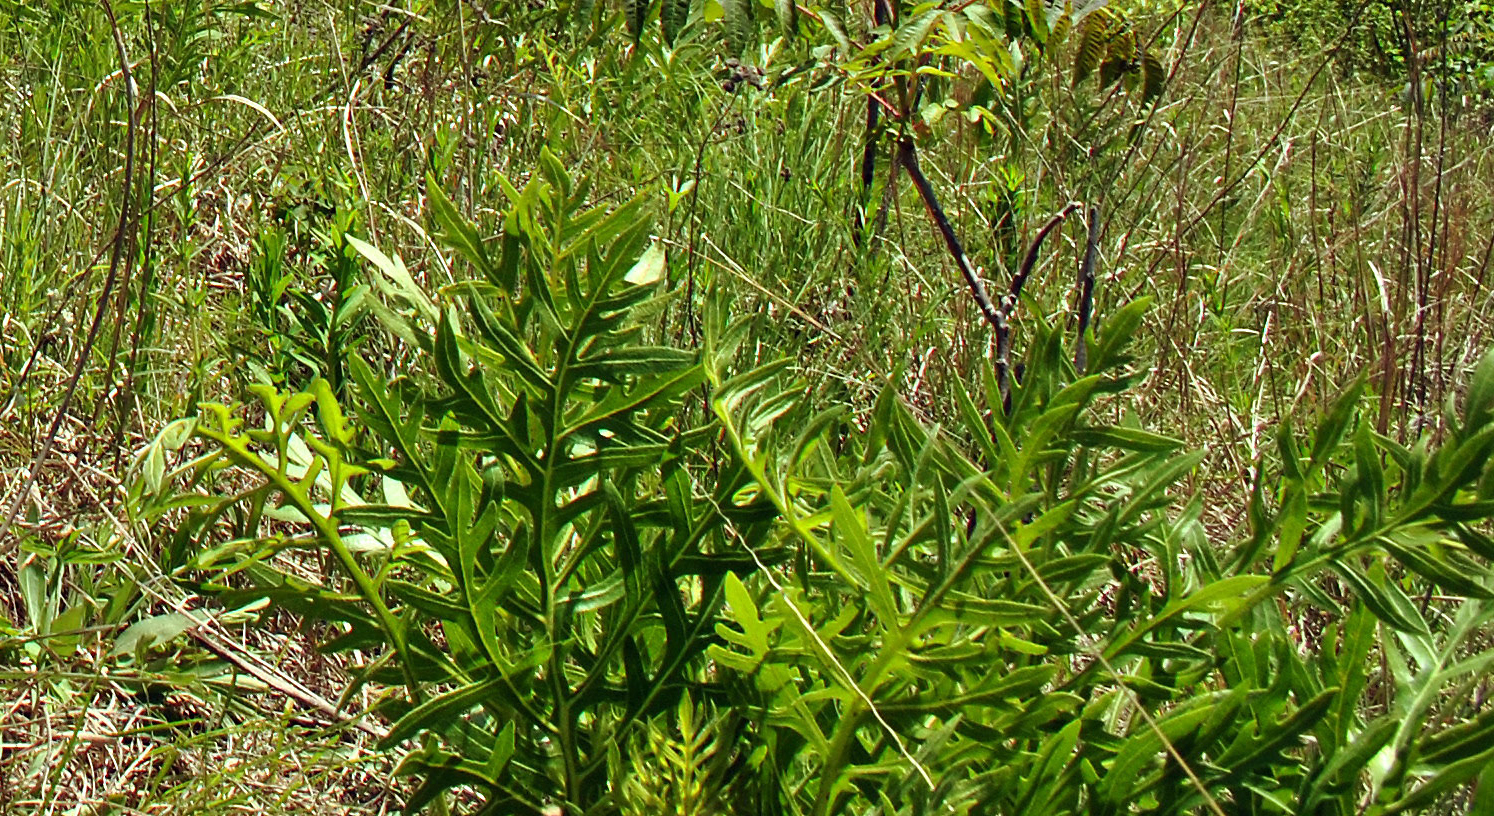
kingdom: Plantae
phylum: Tracheophyta
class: Magnoliopsida
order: Asterales
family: Asteraceae
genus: Silphium
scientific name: Silphium laciniatum
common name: Polarplant
